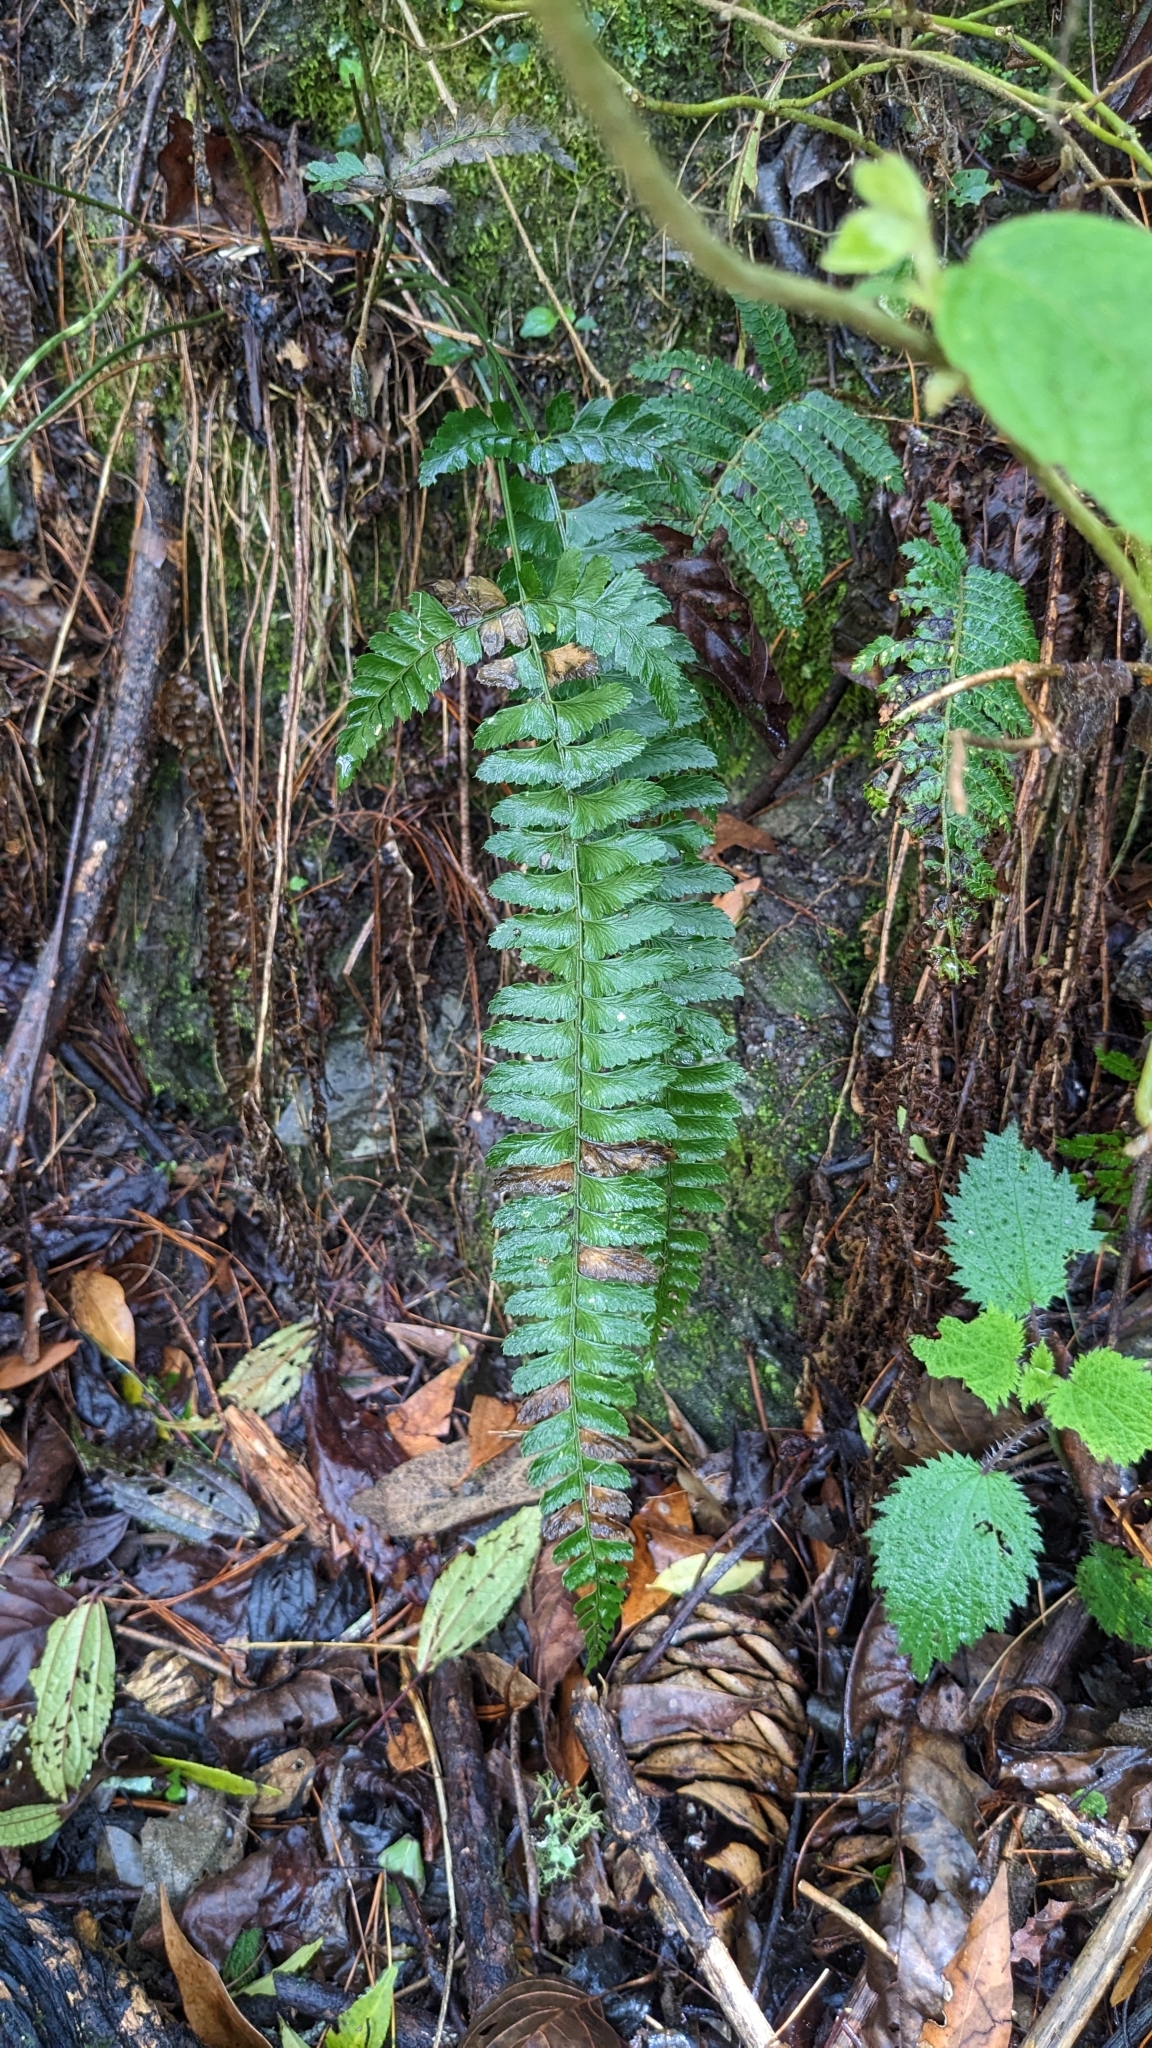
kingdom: Plantae
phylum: Tracheophyta
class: Polypodiopsida
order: Polypodiales
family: Dryopteridaceae
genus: Polystichum
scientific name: Polystichum hancockii
